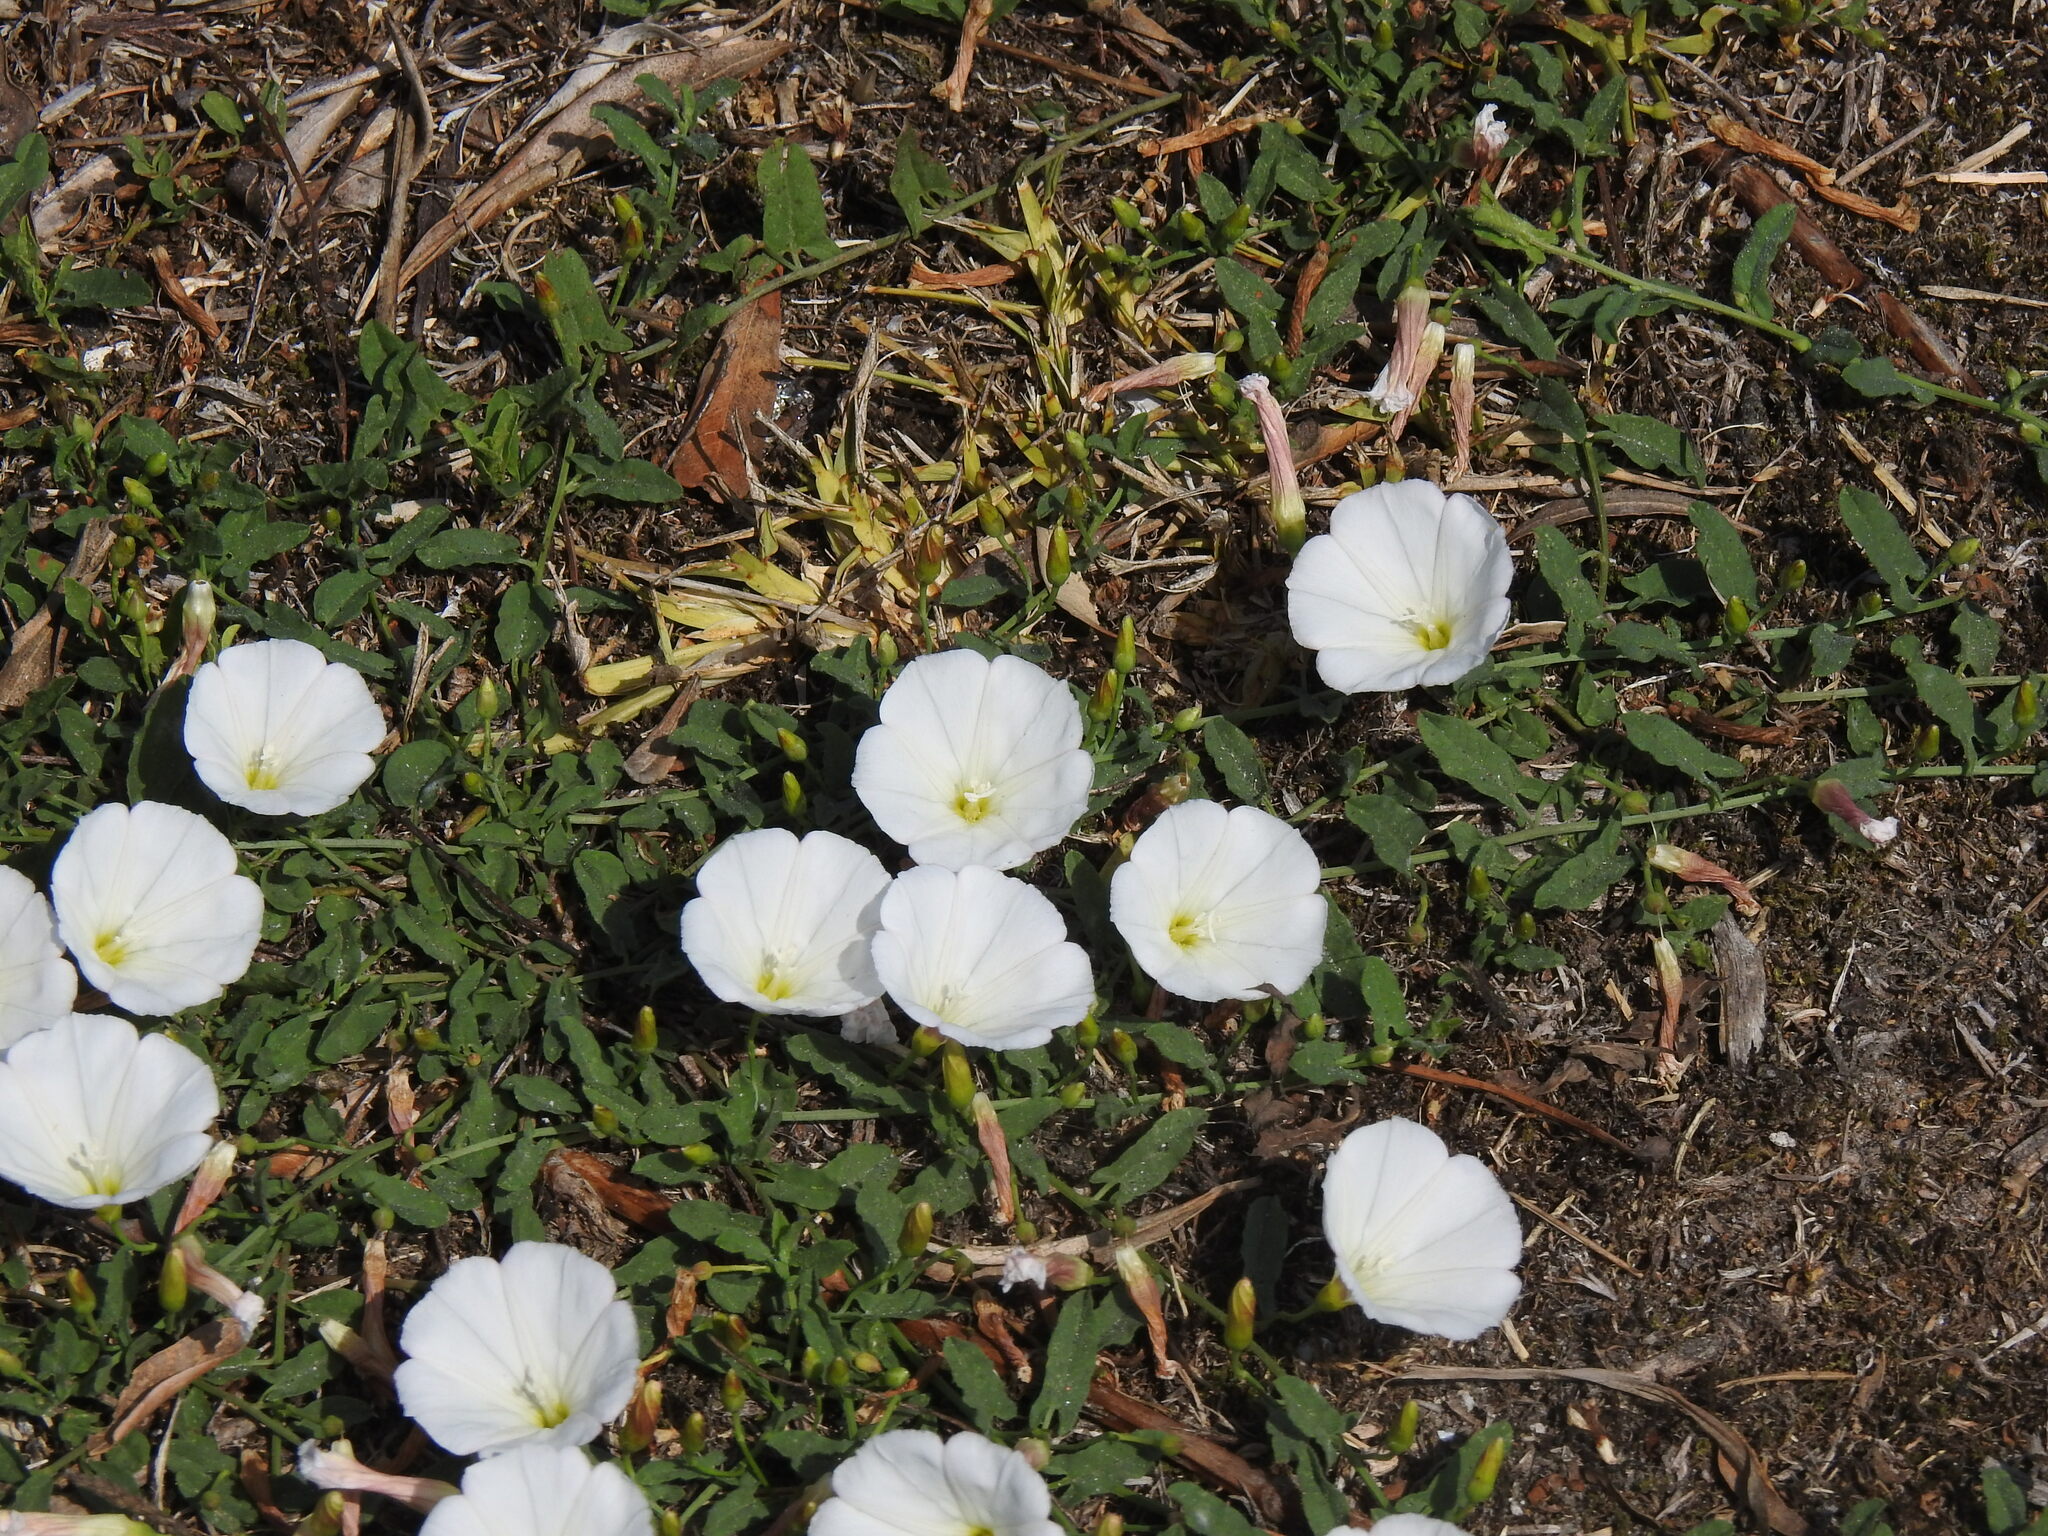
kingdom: Plantae
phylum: Tracheophyta
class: Magnoliopsida
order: Solanales
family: Convolvulaceae
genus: Convolvulus
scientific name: Convolvulus arvensis
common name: Field bindweed
